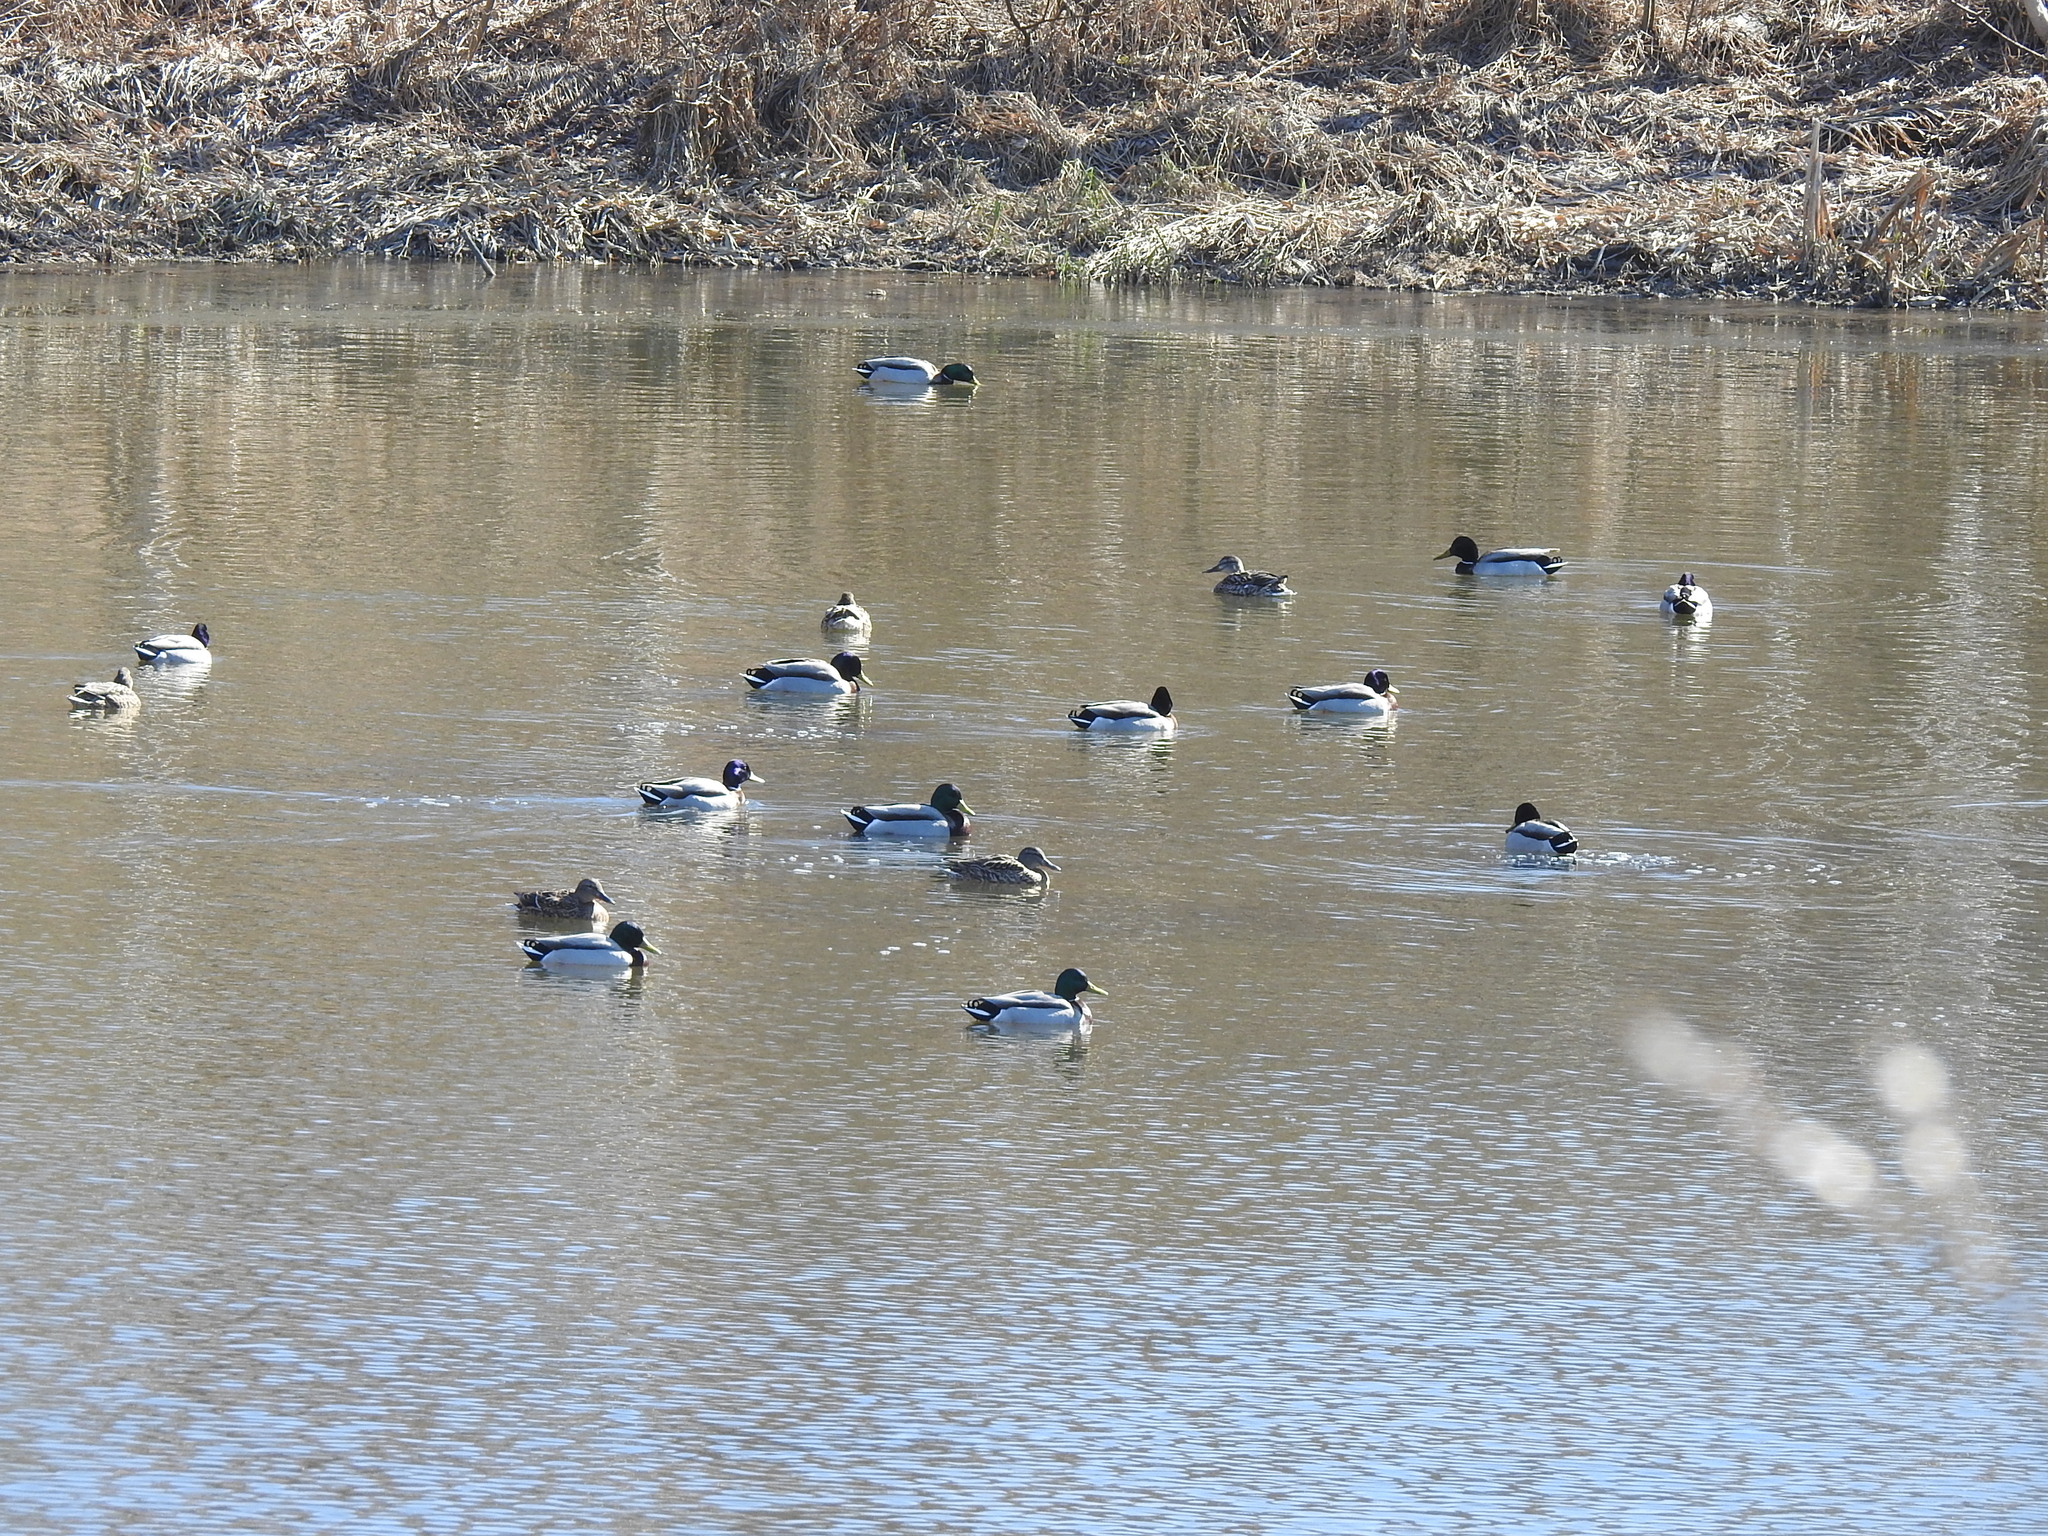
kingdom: Animalia
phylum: Chordata
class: Aves
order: Anseriformes
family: Anatidae
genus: Anas
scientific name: Anas platyrhynchos
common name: Mallard
